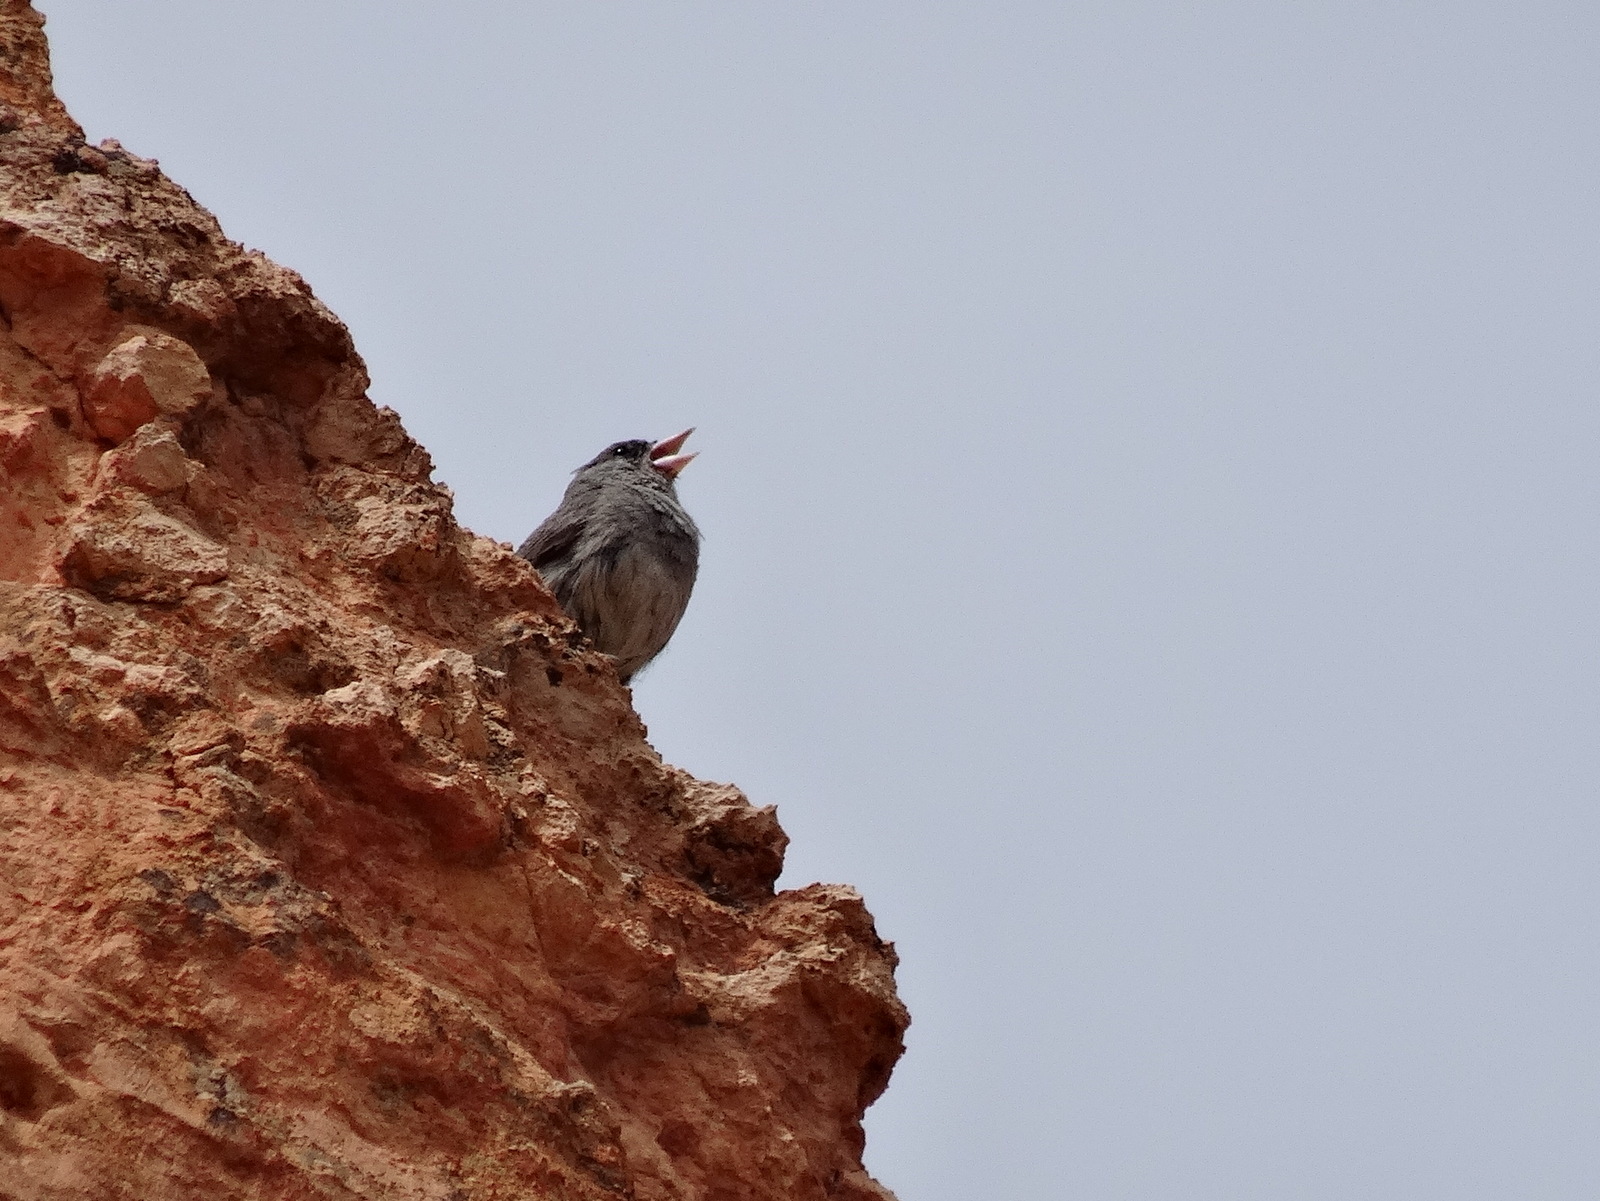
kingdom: Animalia
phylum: Chordata
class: Aves
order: Passeriformes
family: Passerellidae
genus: Junco
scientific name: Junco hyemalis
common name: Dark-eyed junco
